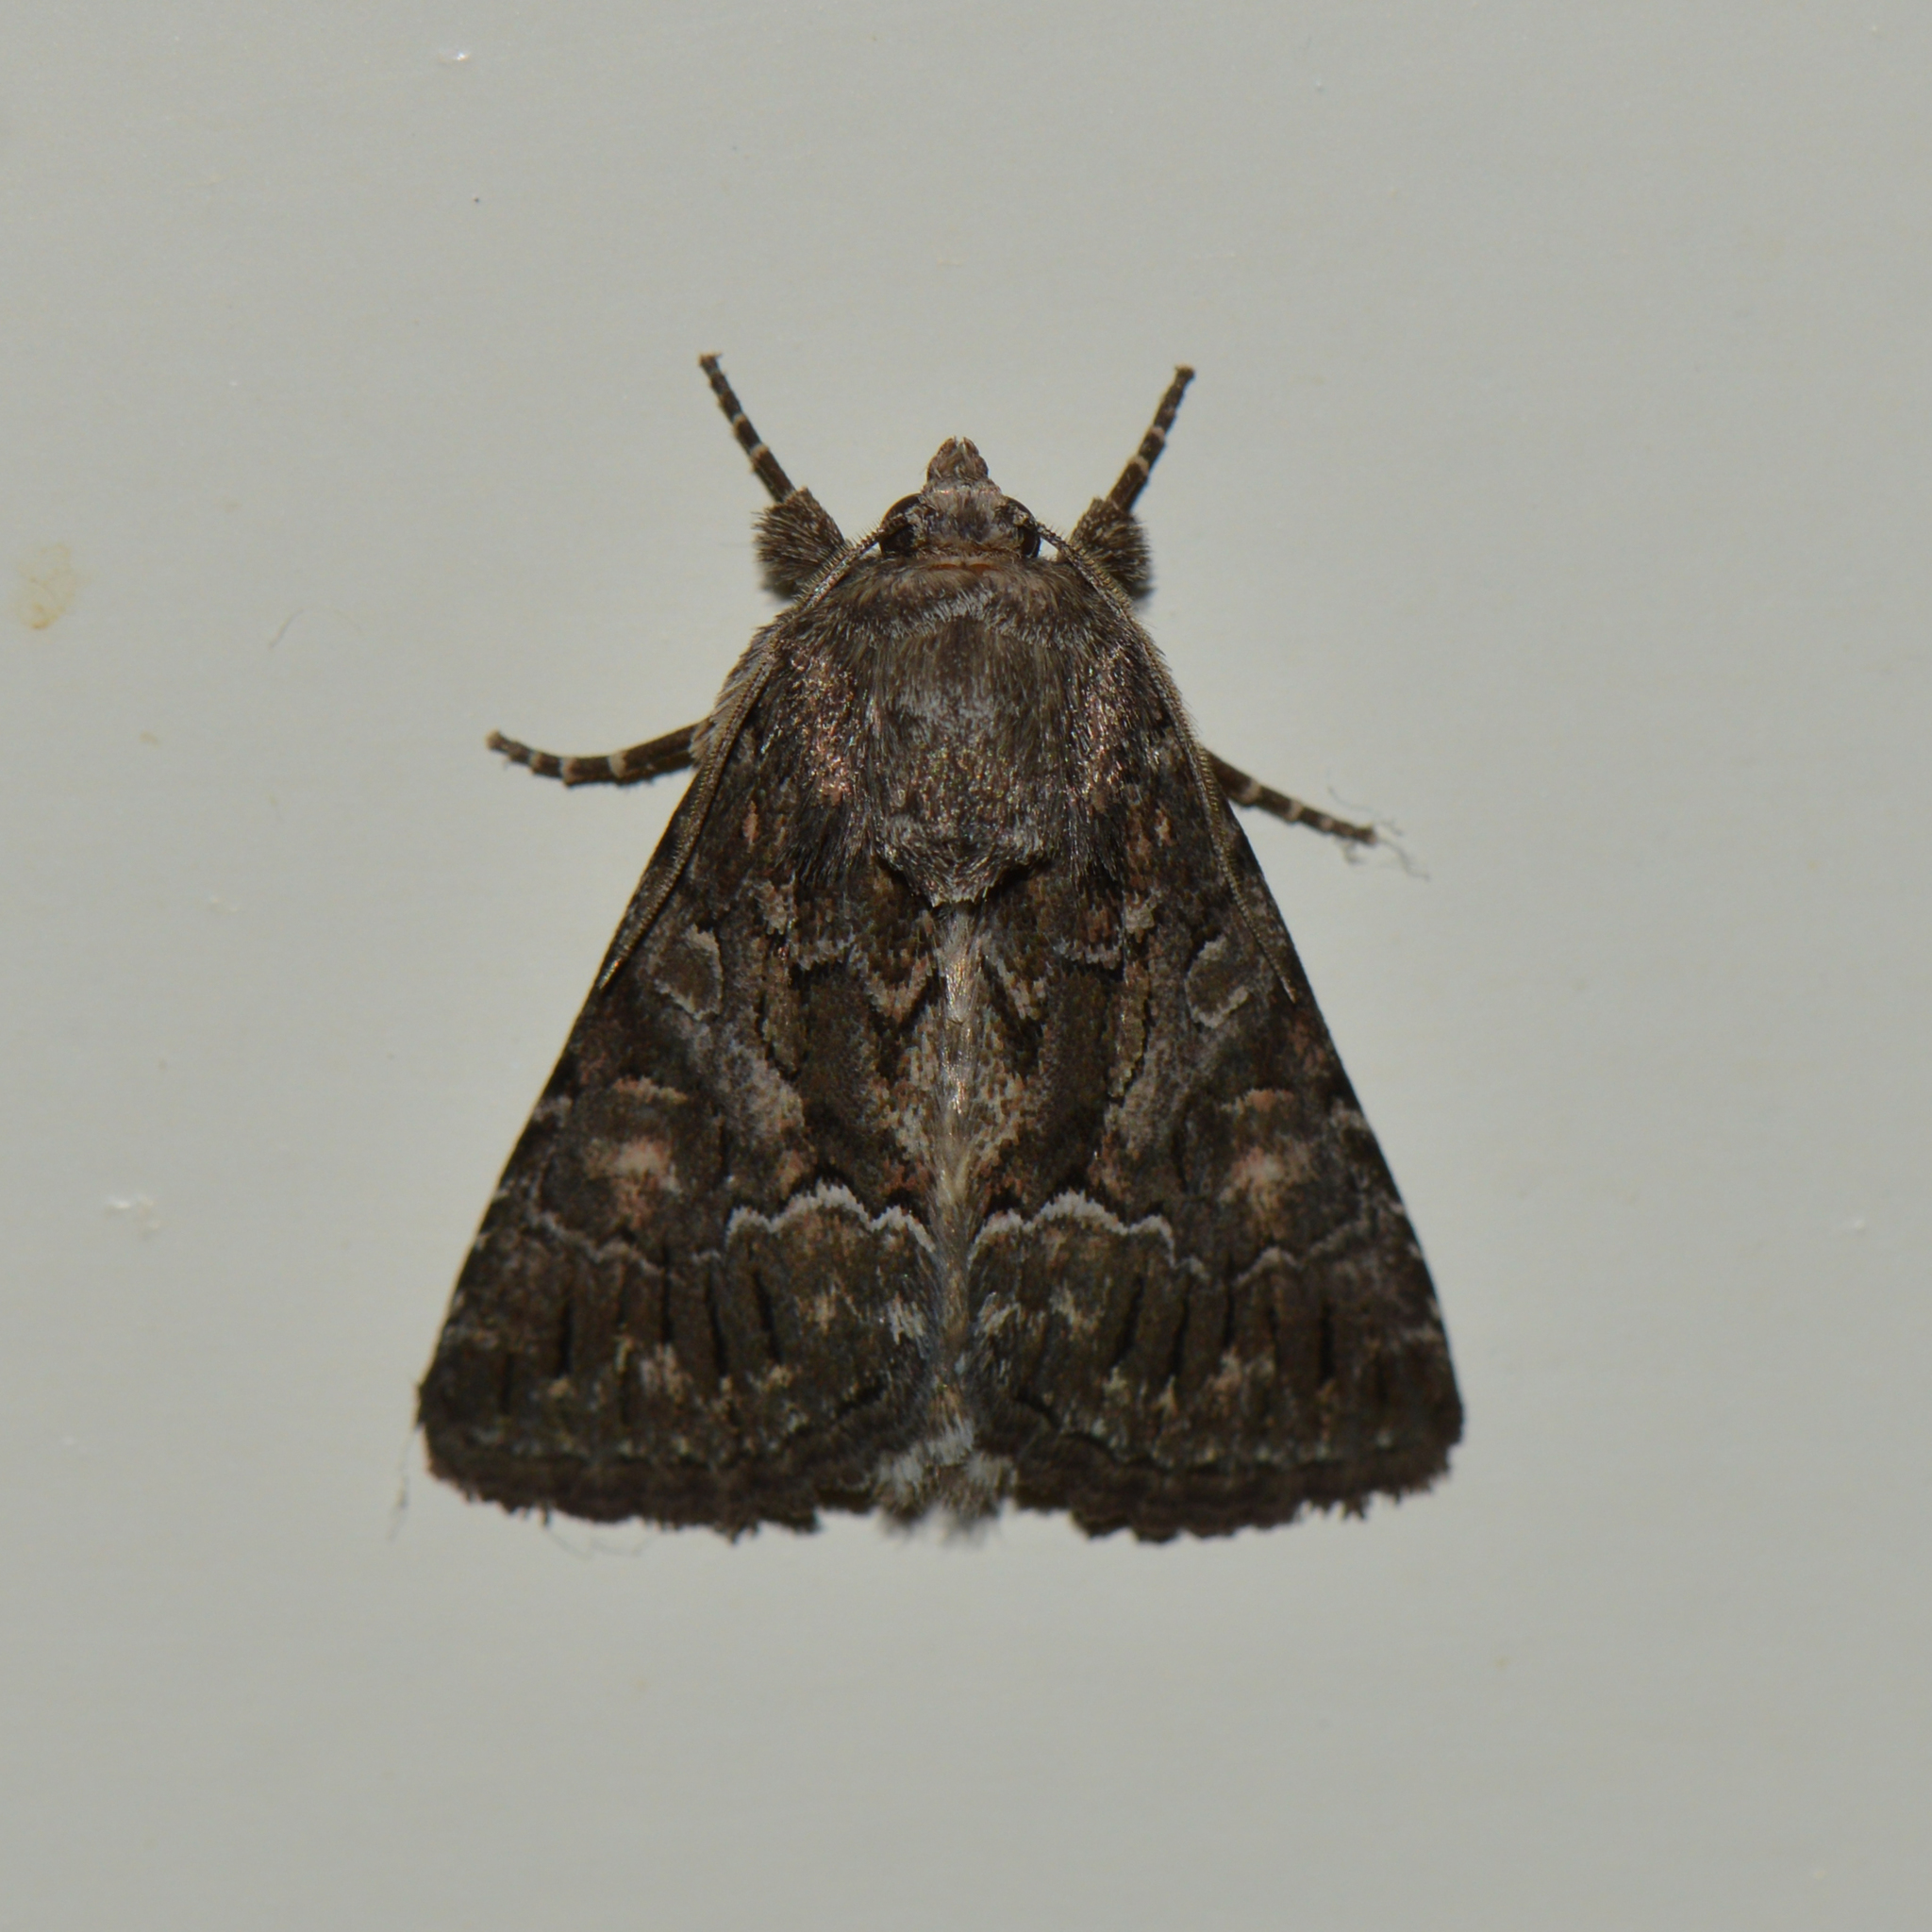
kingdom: Animalia
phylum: Arthropoda
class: Insecta
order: Lepidoptera
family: Noctuidae
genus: Thalpophila
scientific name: Thalpophila matura
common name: Straw underwing
